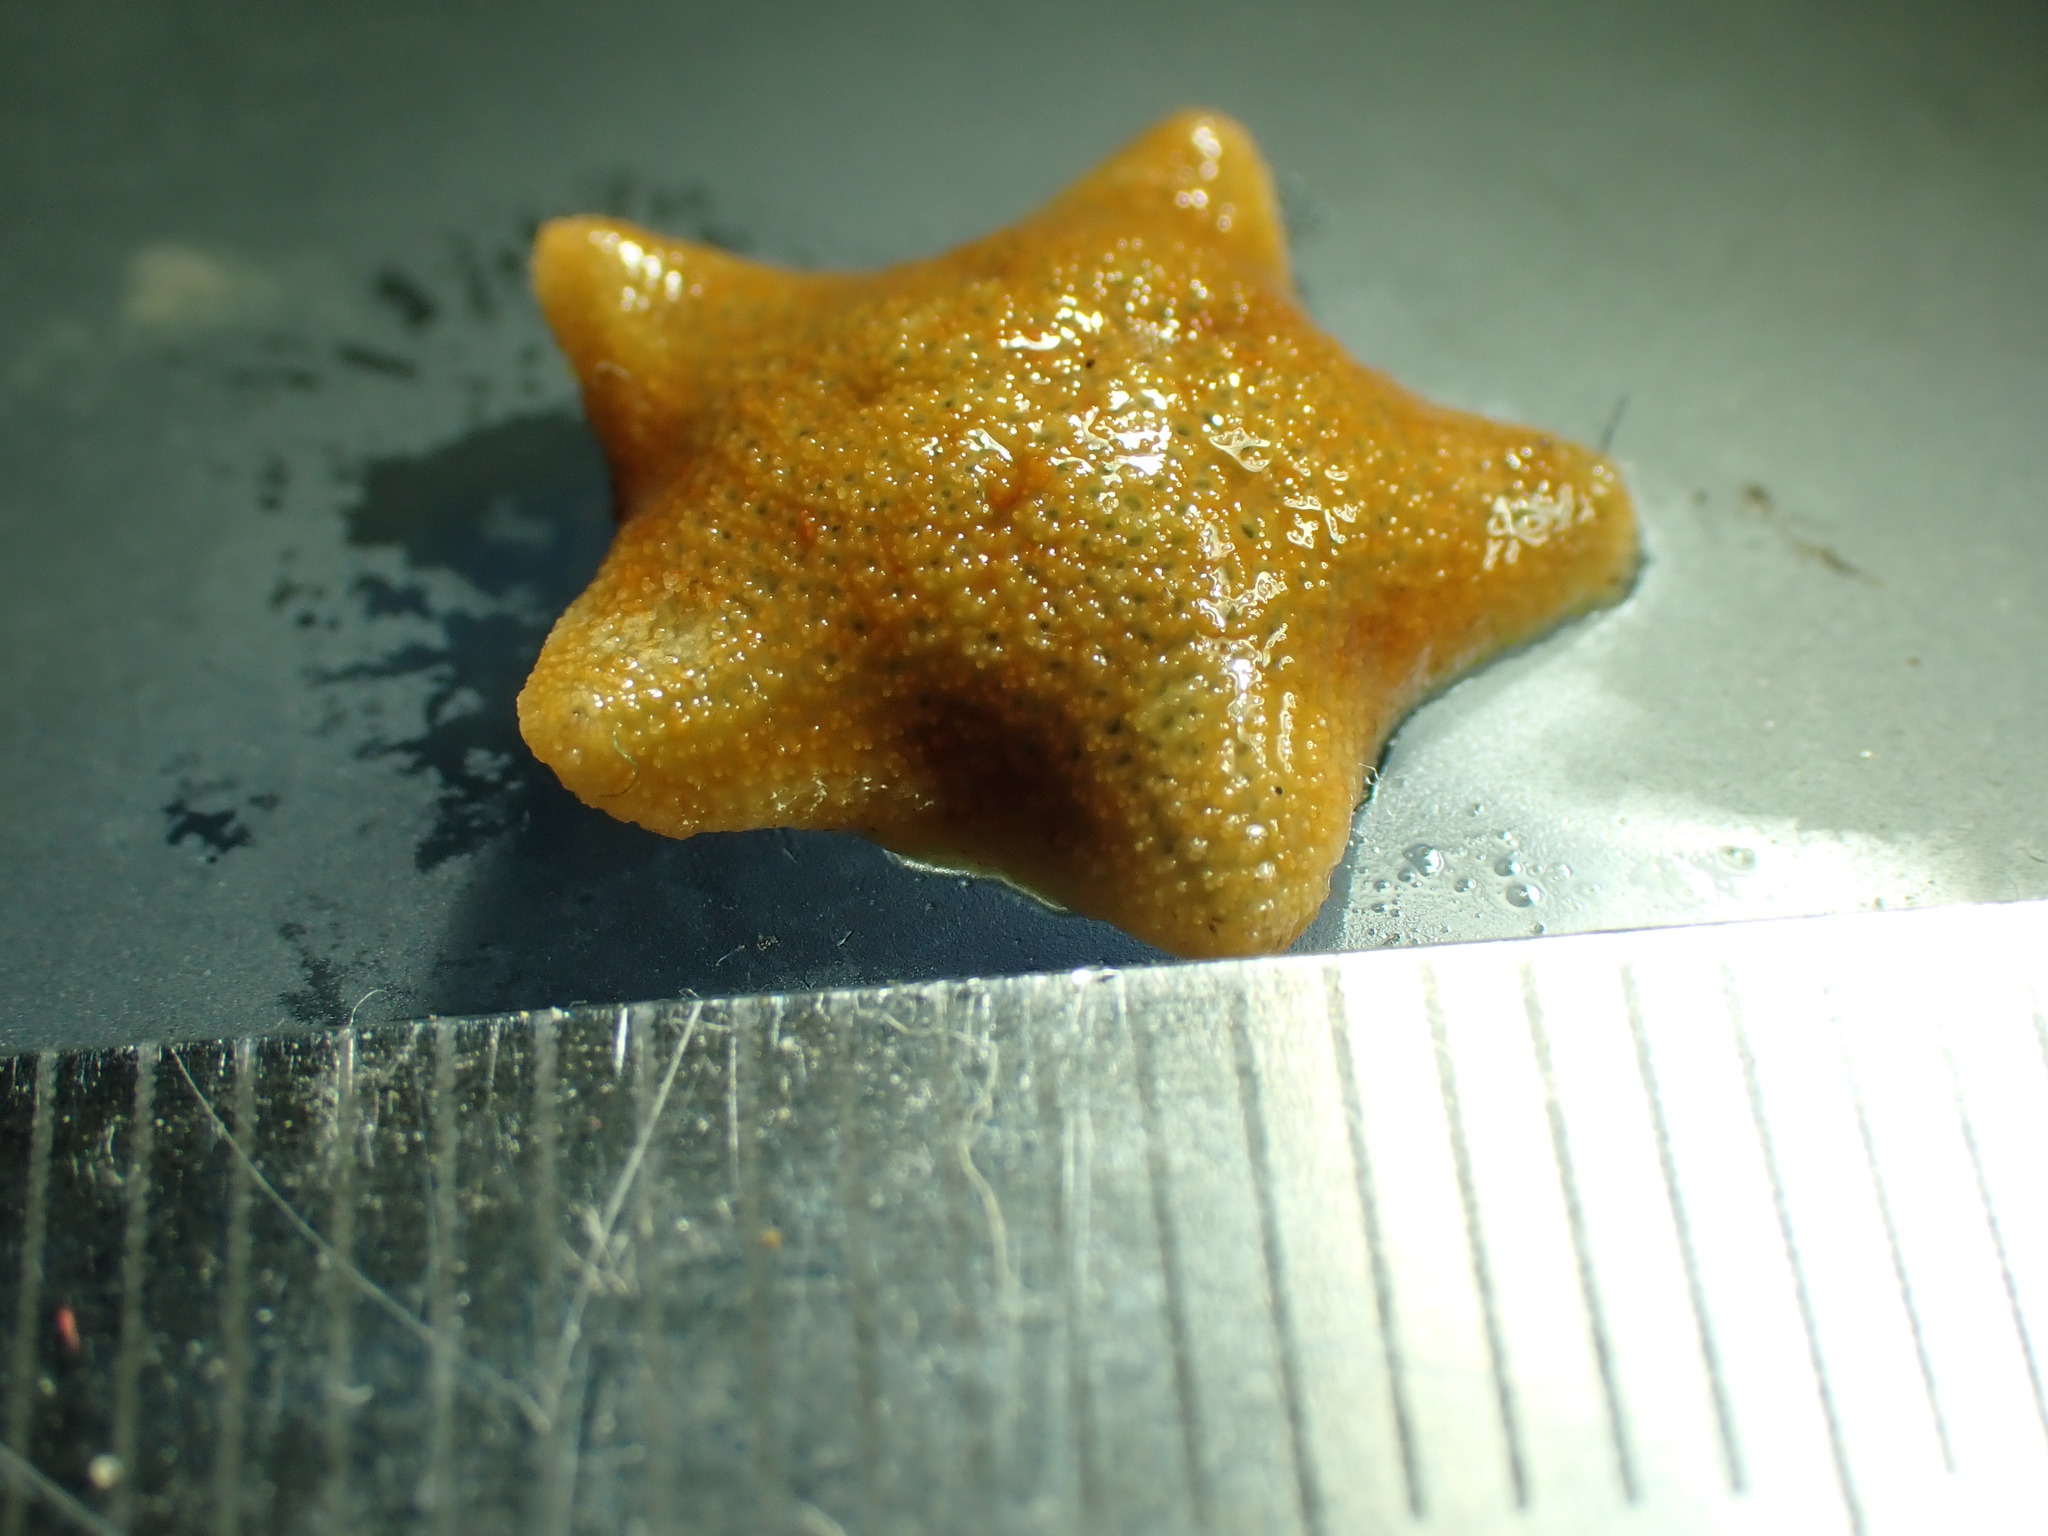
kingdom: Animalia
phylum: Echinodermata
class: Asteroidea
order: Valvatida
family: Asterinidae
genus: Parvulastra
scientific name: Parvulastra exigua
